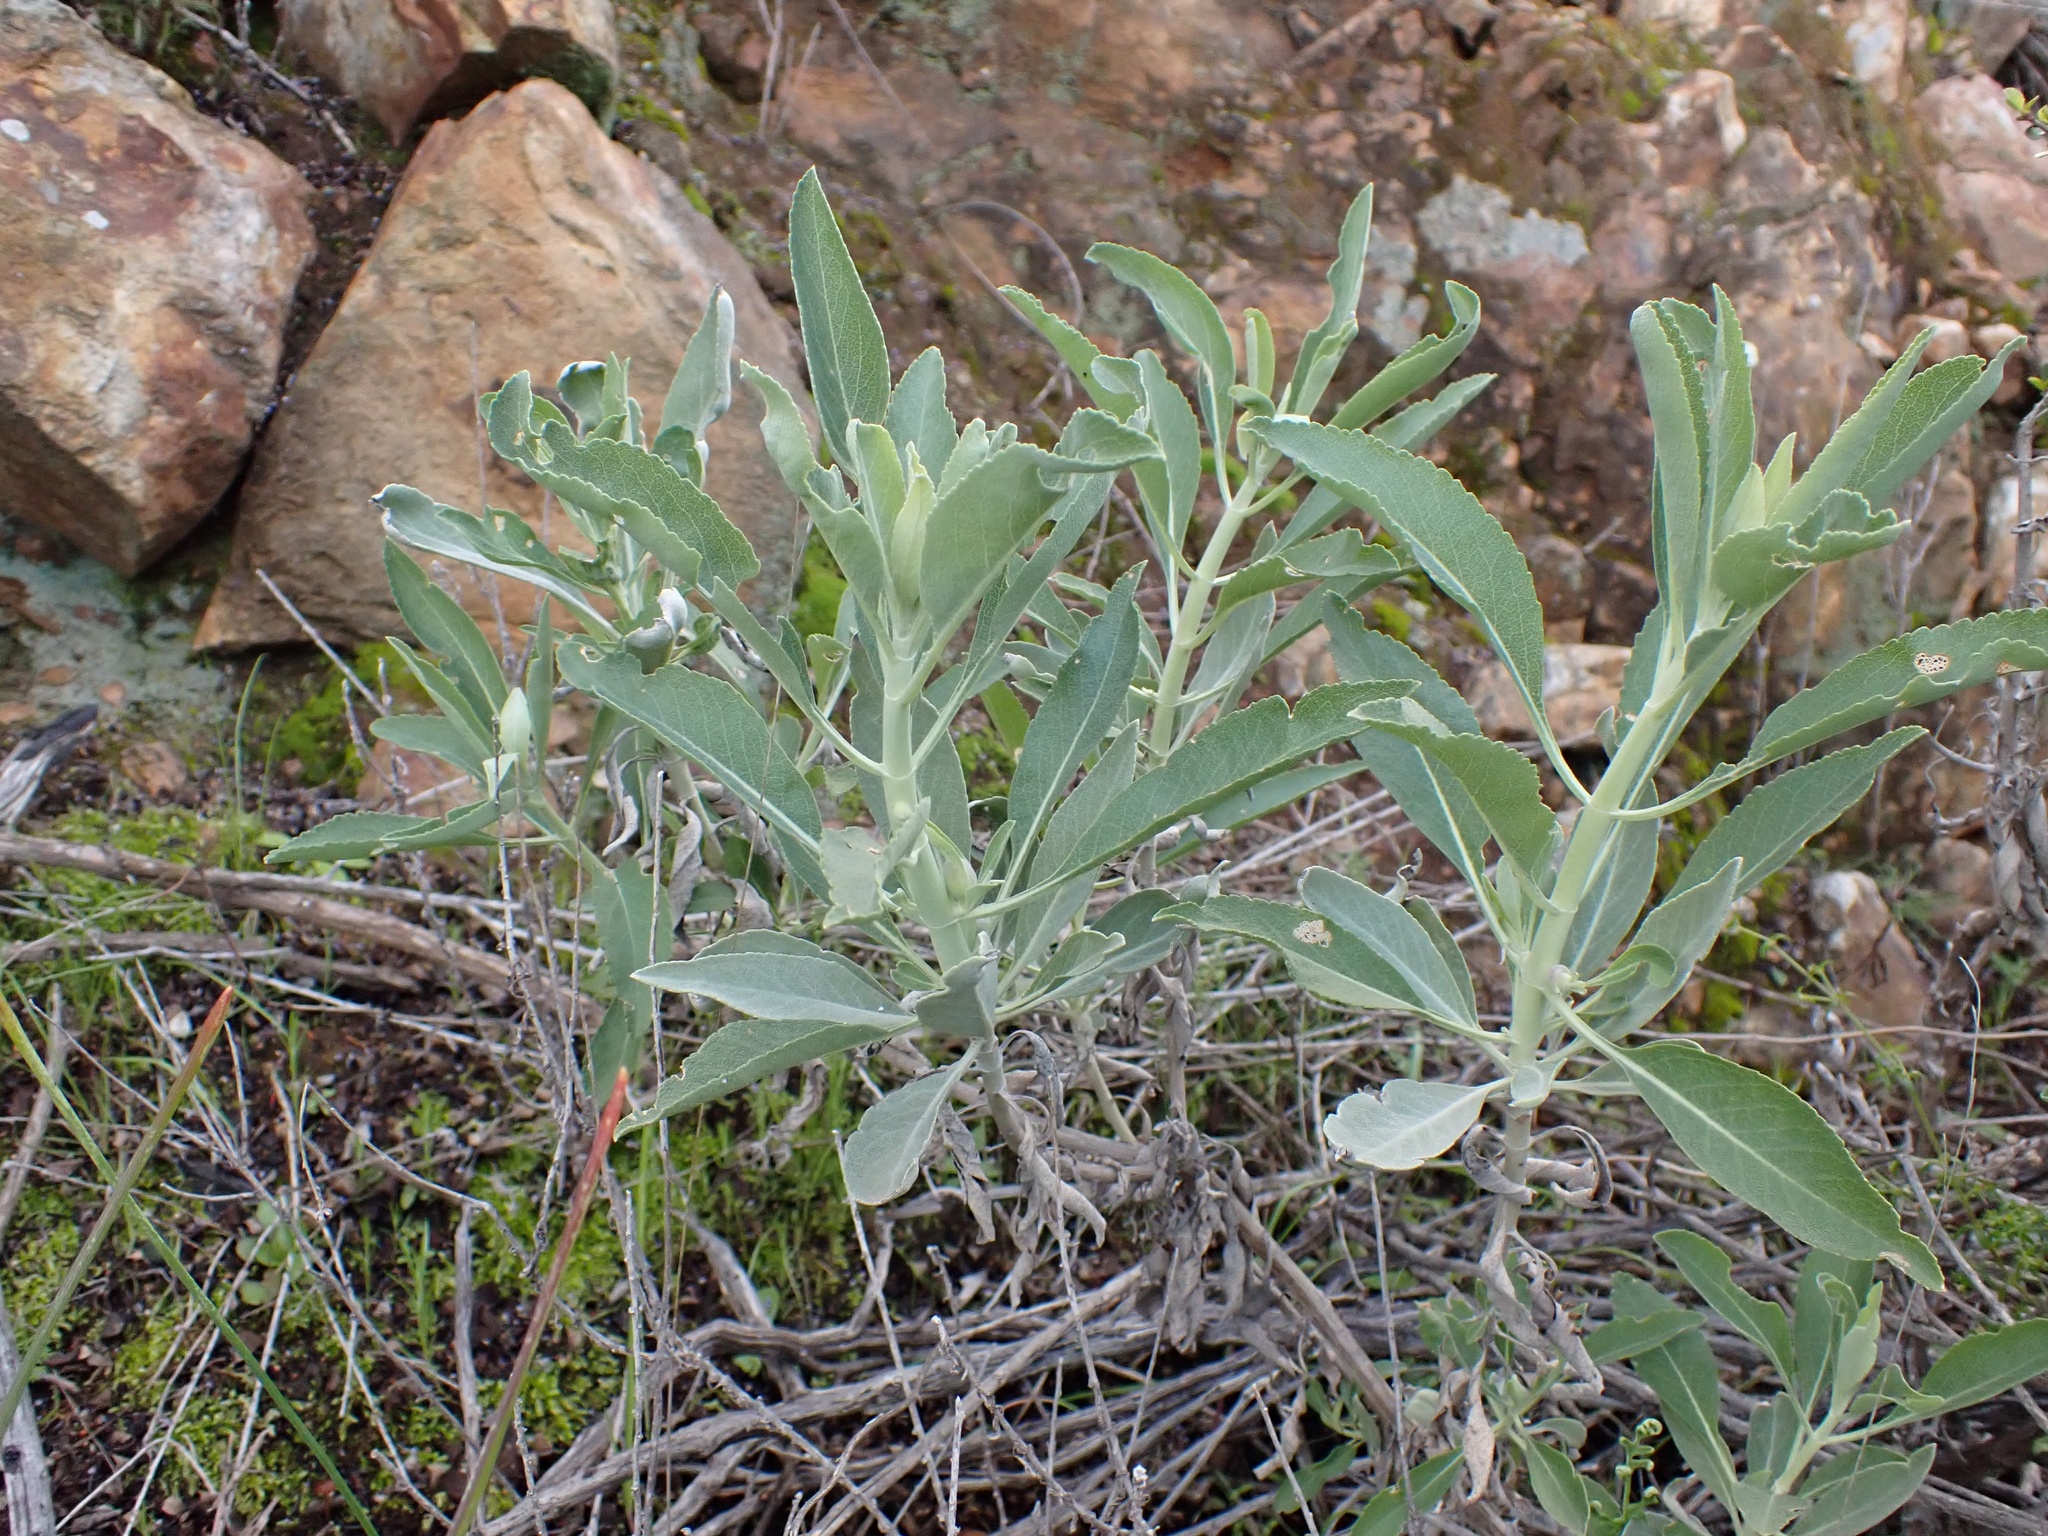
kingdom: Plantae
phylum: Tracheophyta
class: Magnoliopsida
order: Lamiales
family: Lamiaceae
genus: Salvia
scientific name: Salvia apiana
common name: White sage
